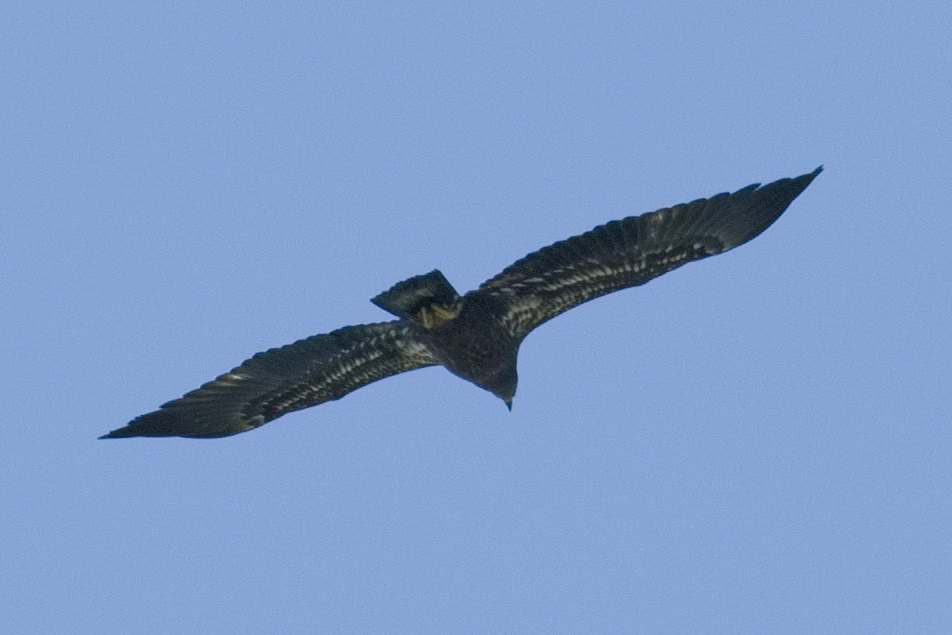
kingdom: Animalia
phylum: Chordata
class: Aves
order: Accipitriformes
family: Accipitridae
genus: Haliaeetus
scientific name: Haliaeetus leucocephalus
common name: Bald eagle
